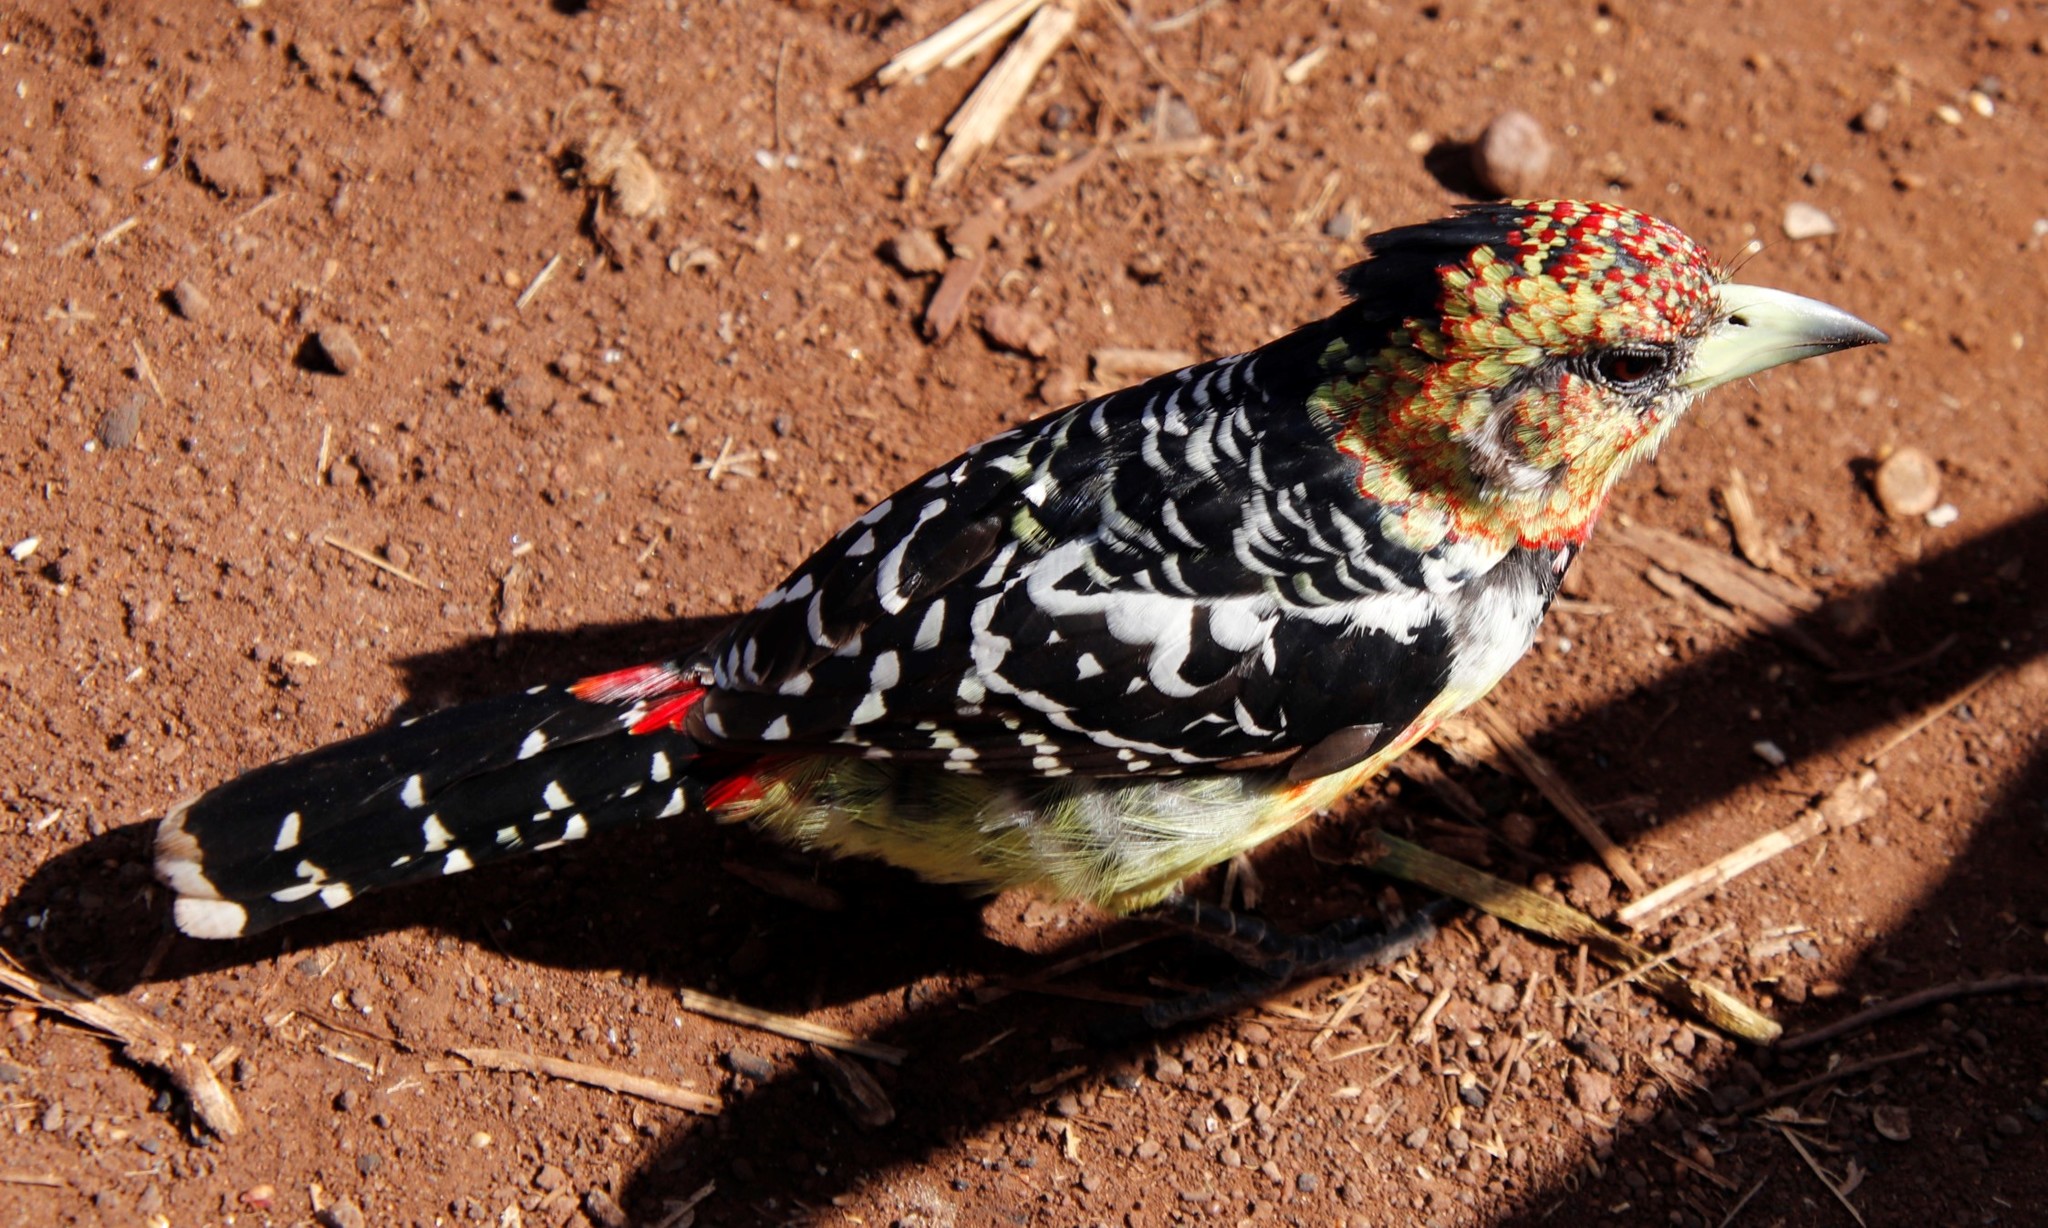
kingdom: Animalia
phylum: Chordata
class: Aves
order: Piciformes
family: Lybiidae
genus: Trachyphonus
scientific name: Trachyphonus vaillantii
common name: Crested barbet
